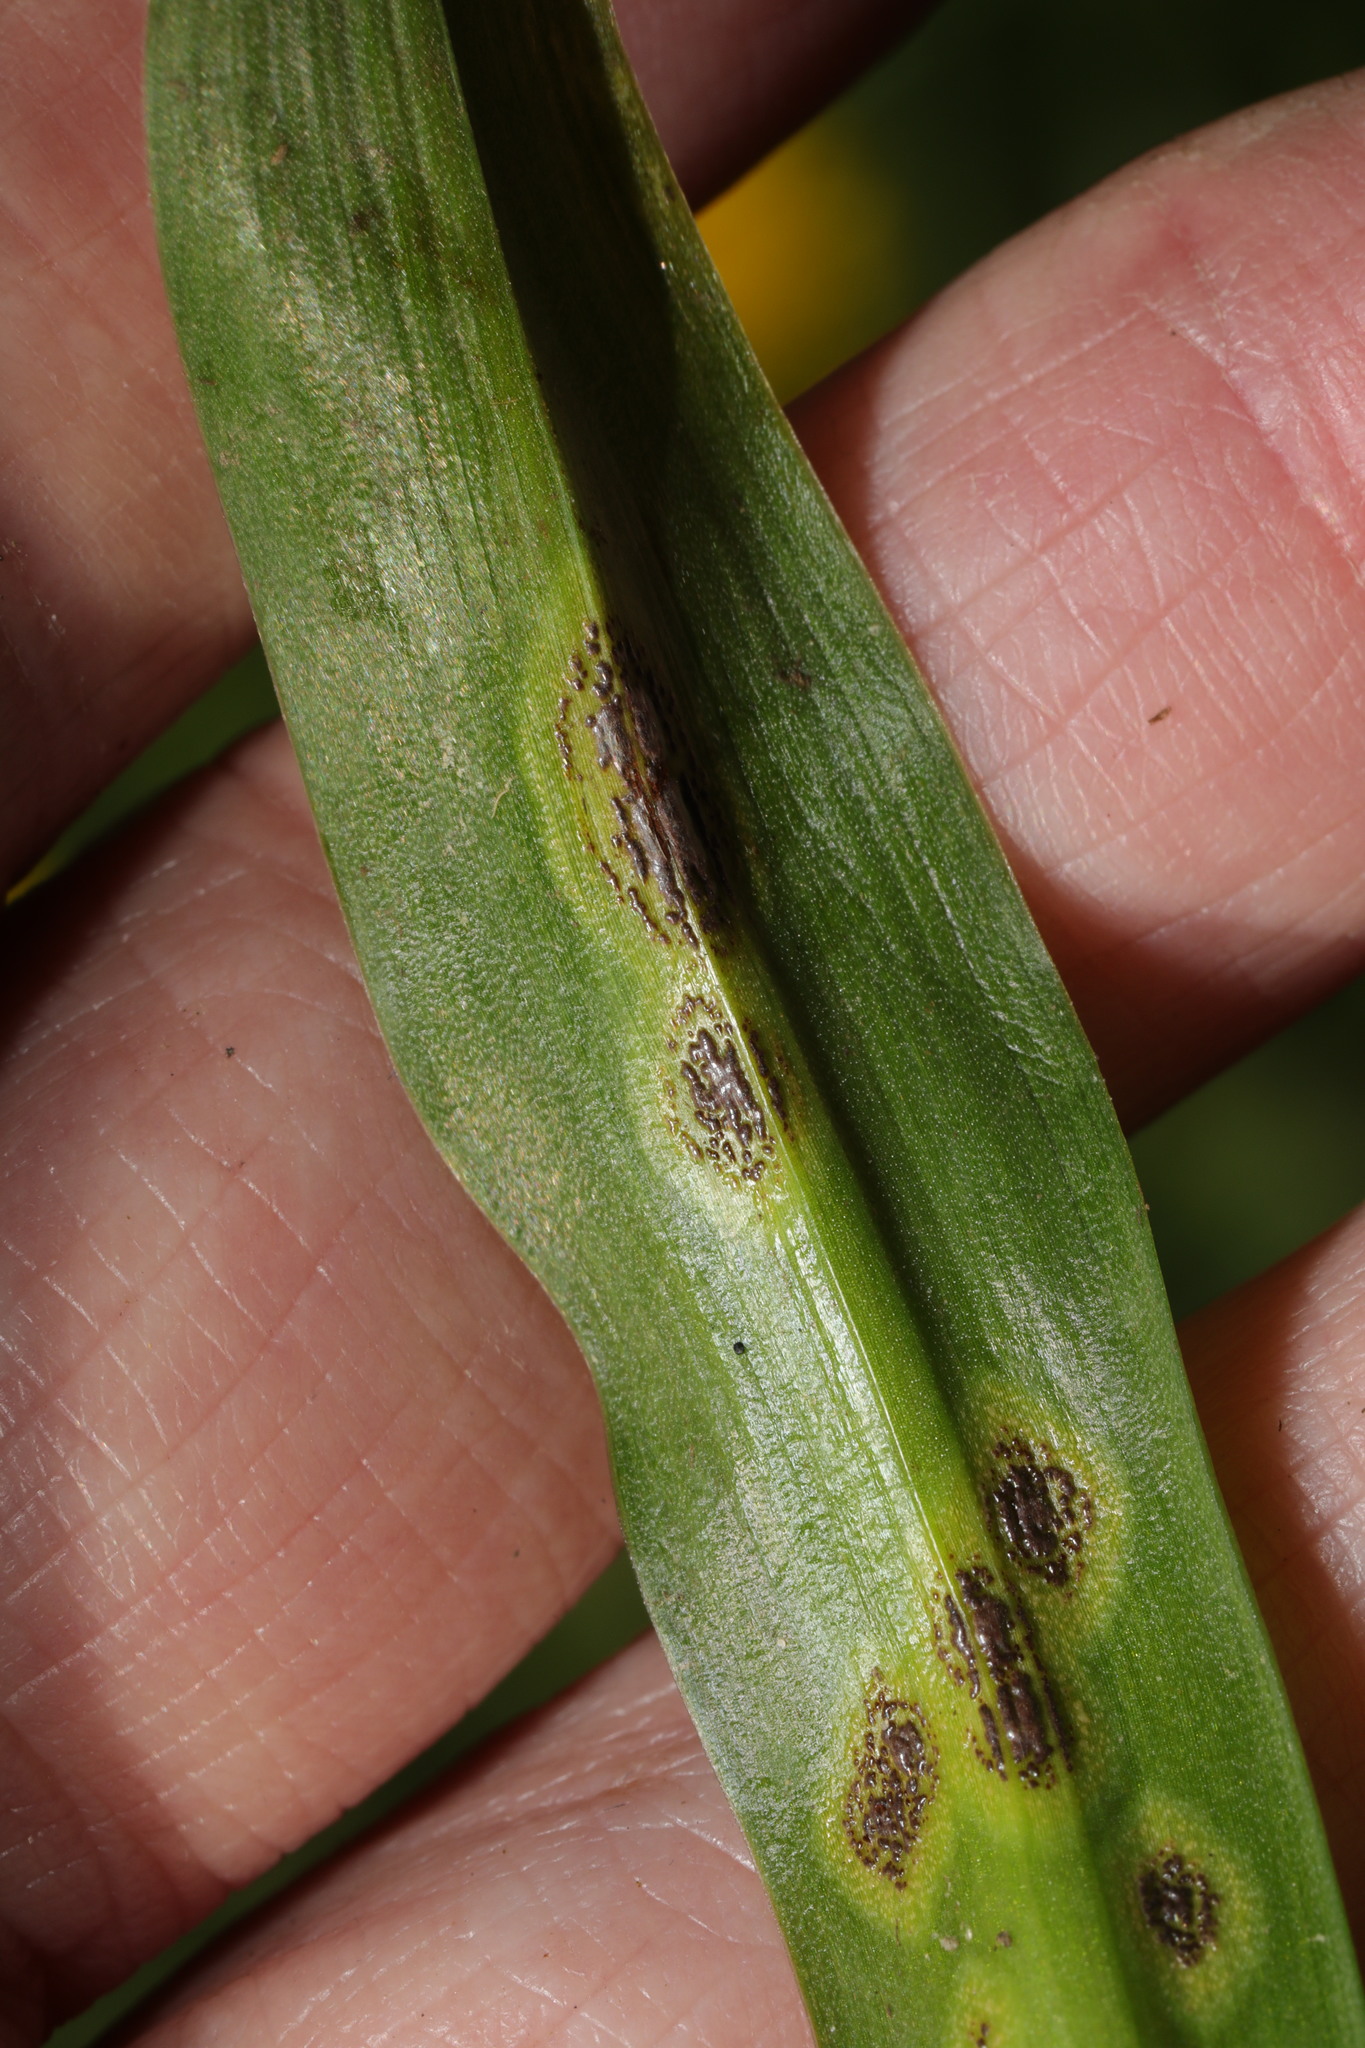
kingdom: Fungi
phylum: Basidiomycota
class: Pucciniomycetes
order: Pucciniales
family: Pucciniaceae
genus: Uromyces
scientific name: Uromyces hyacinthi
